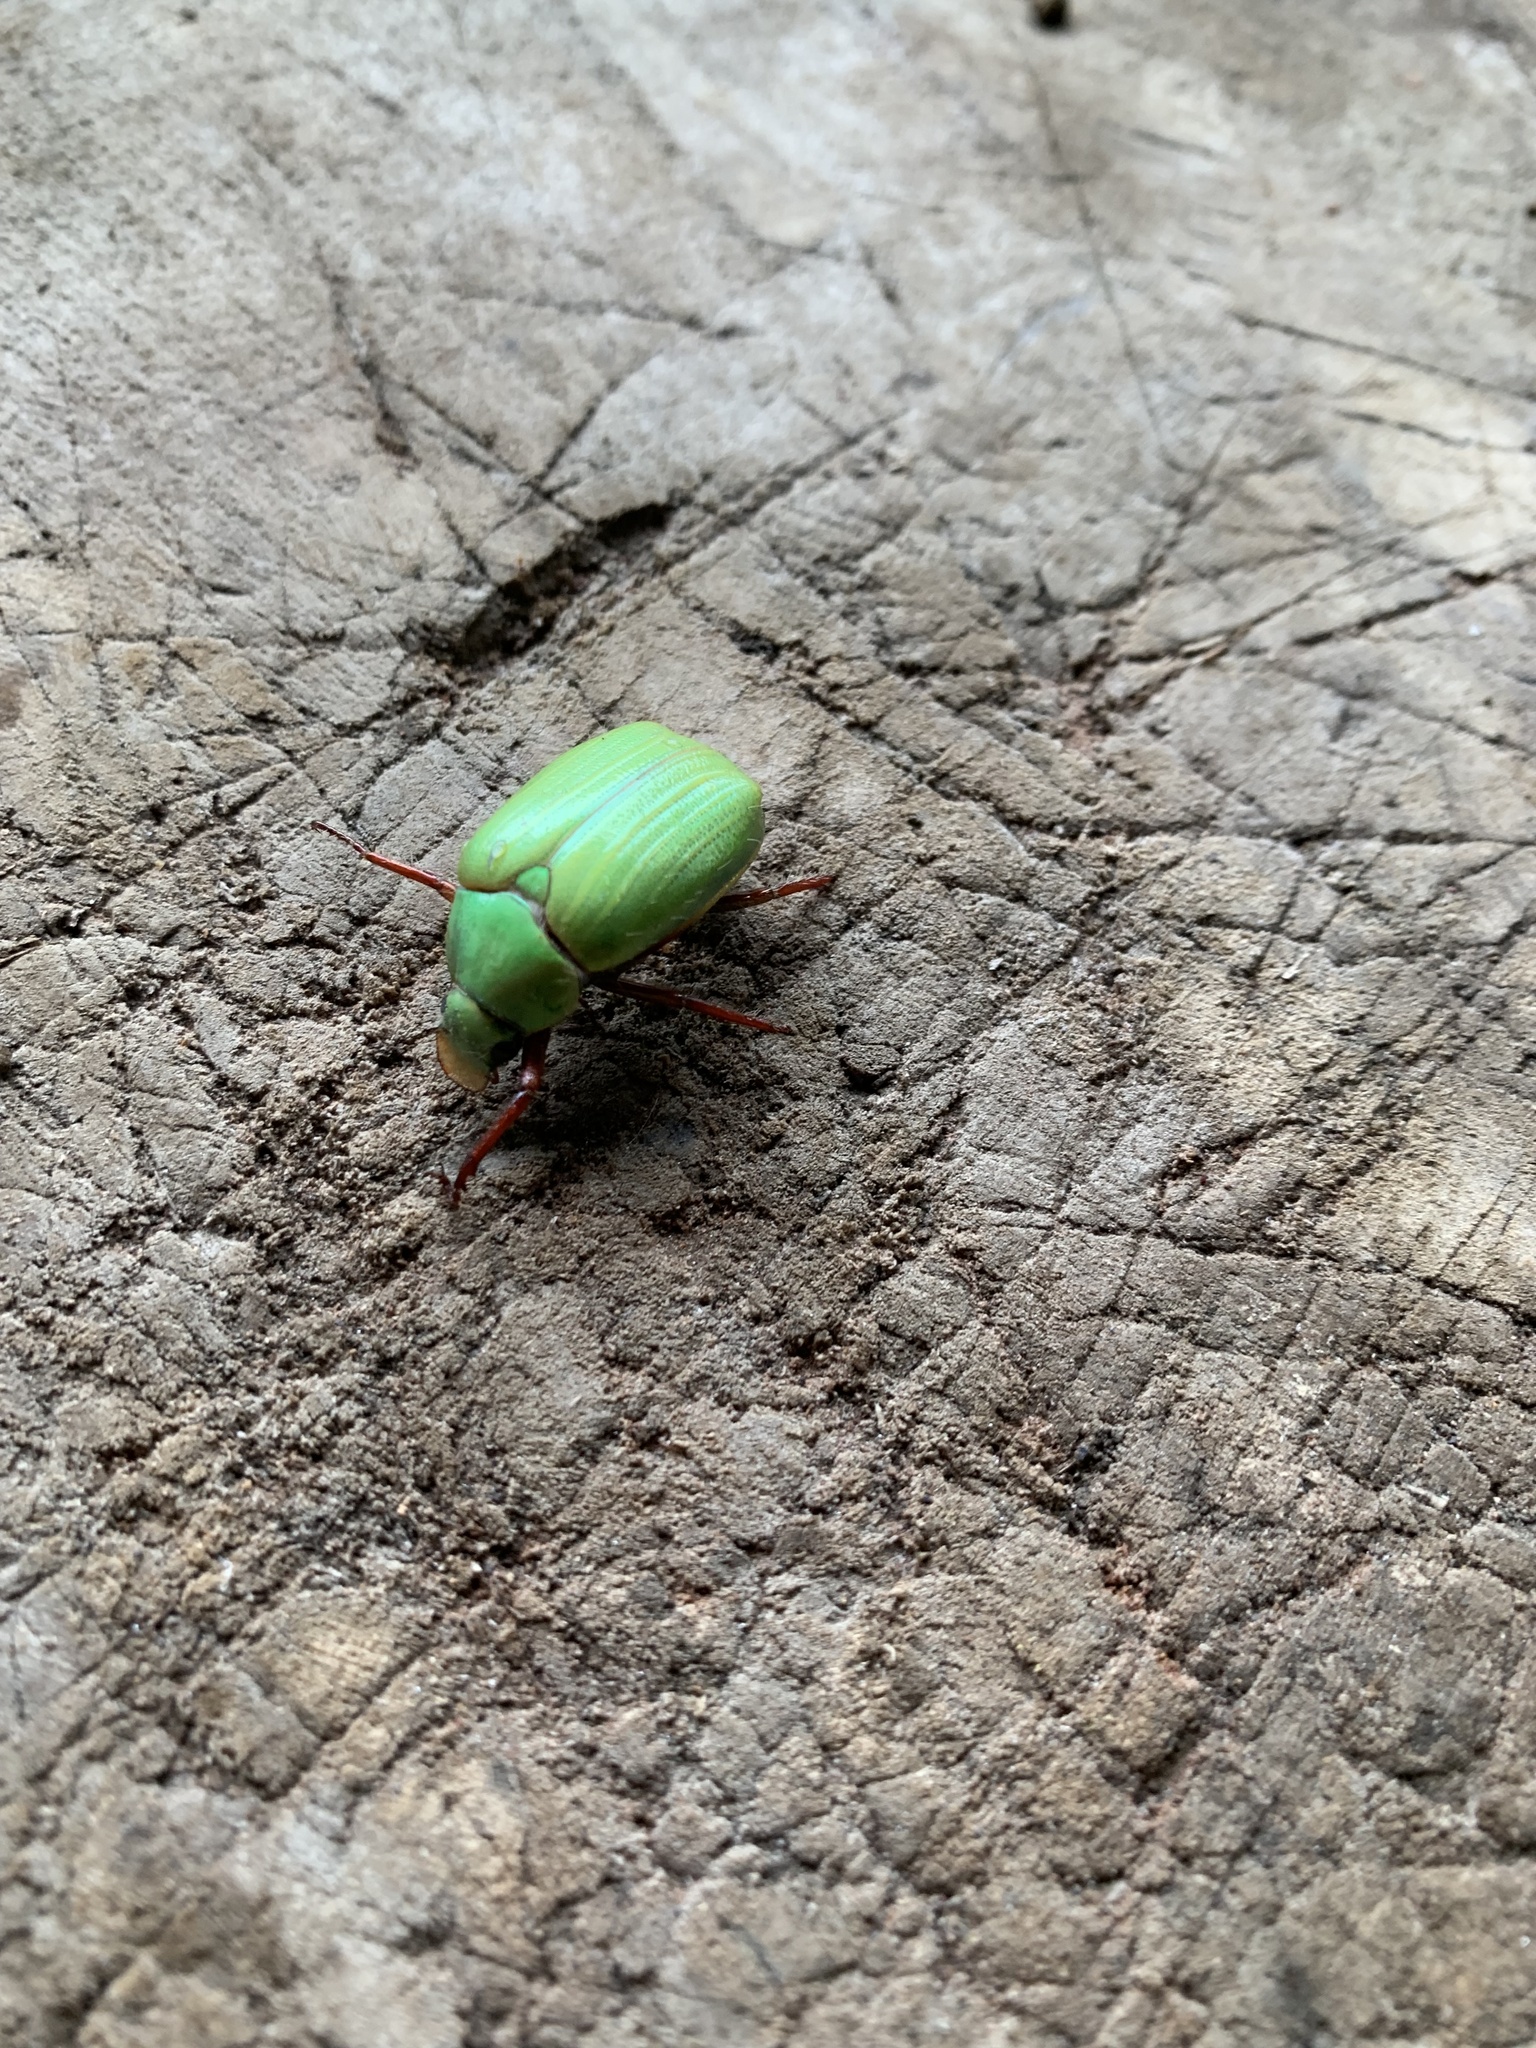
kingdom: Animalia
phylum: Arthropoda
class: Insecta
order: Coleoptera
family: Scarabaeidae
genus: Modialis
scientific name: Modialis prasinella
